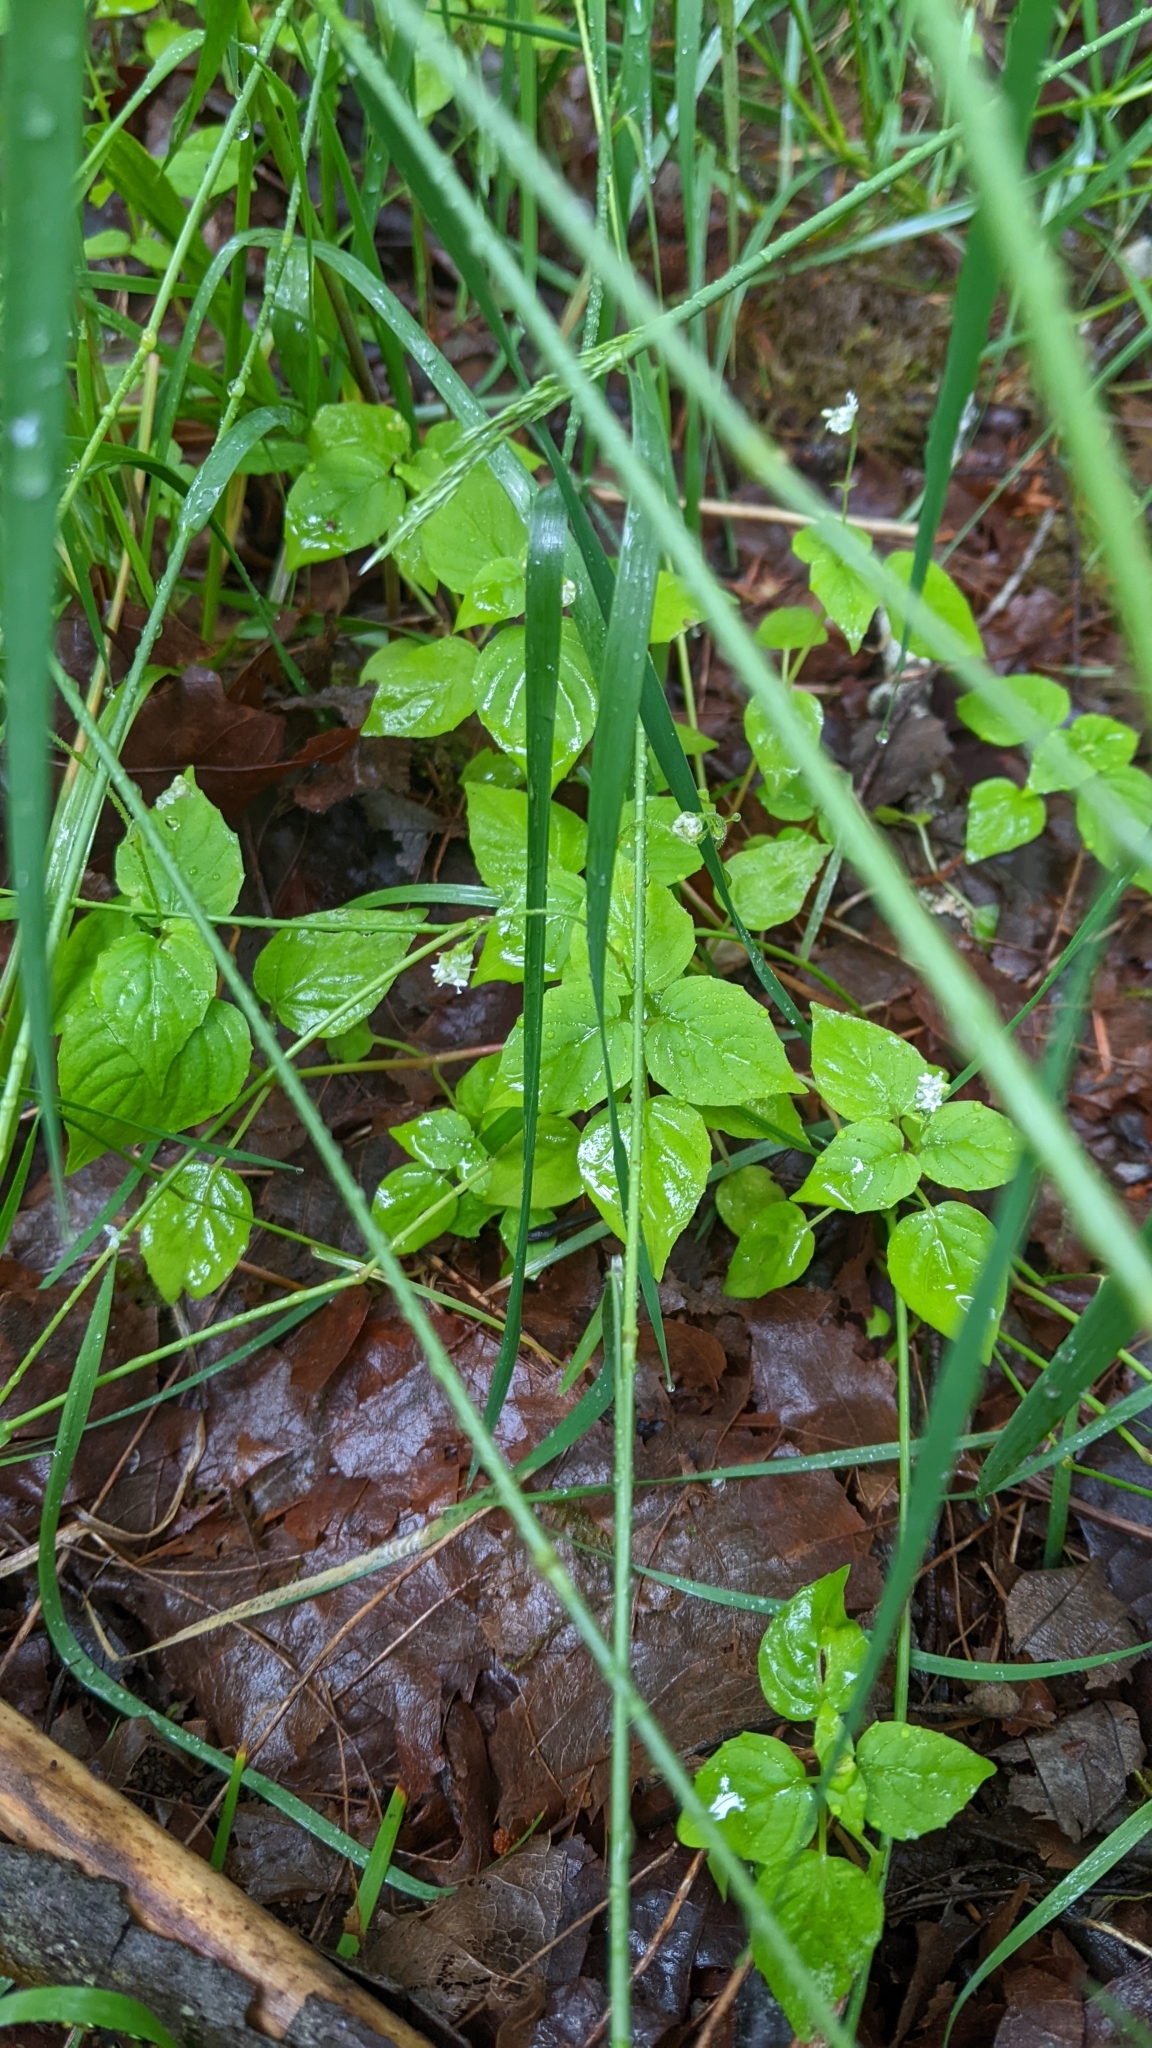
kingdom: Plantae
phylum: Tracheophyta
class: Magnoliopsida
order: Myrtales
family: Onagraceae
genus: Circaea
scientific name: Circaea alpina
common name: Alpine enchanter's-nightshade
